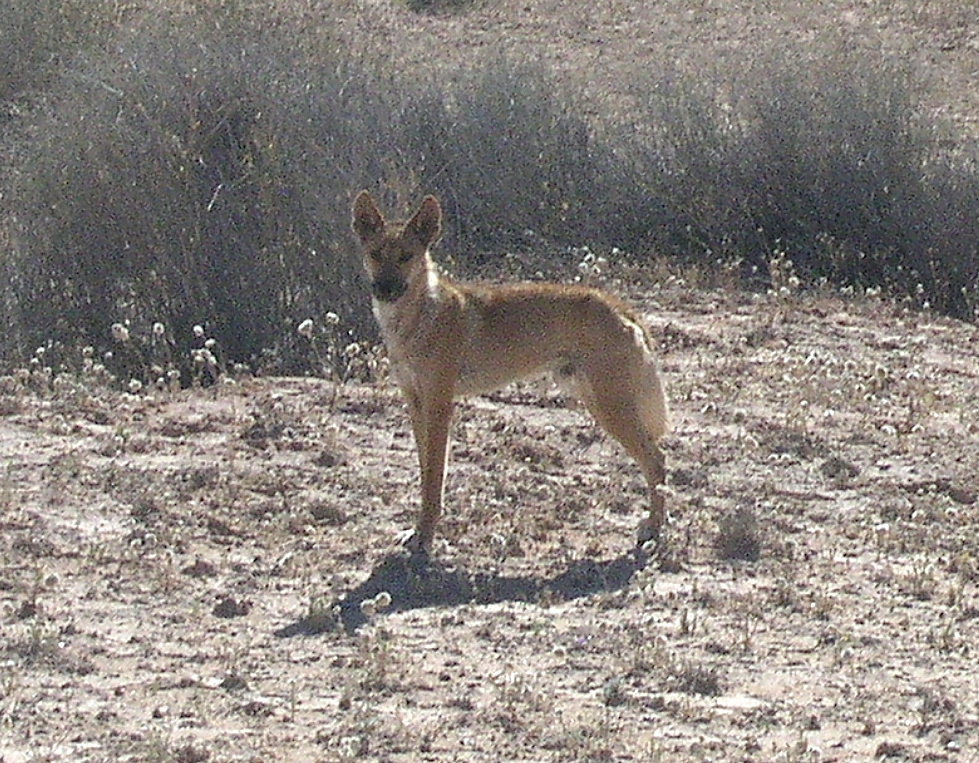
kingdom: Animalia
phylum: Chordata
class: Mammalia
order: Carnivora
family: Canidae
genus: Canis
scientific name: Canis lupus
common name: Gray wolf
